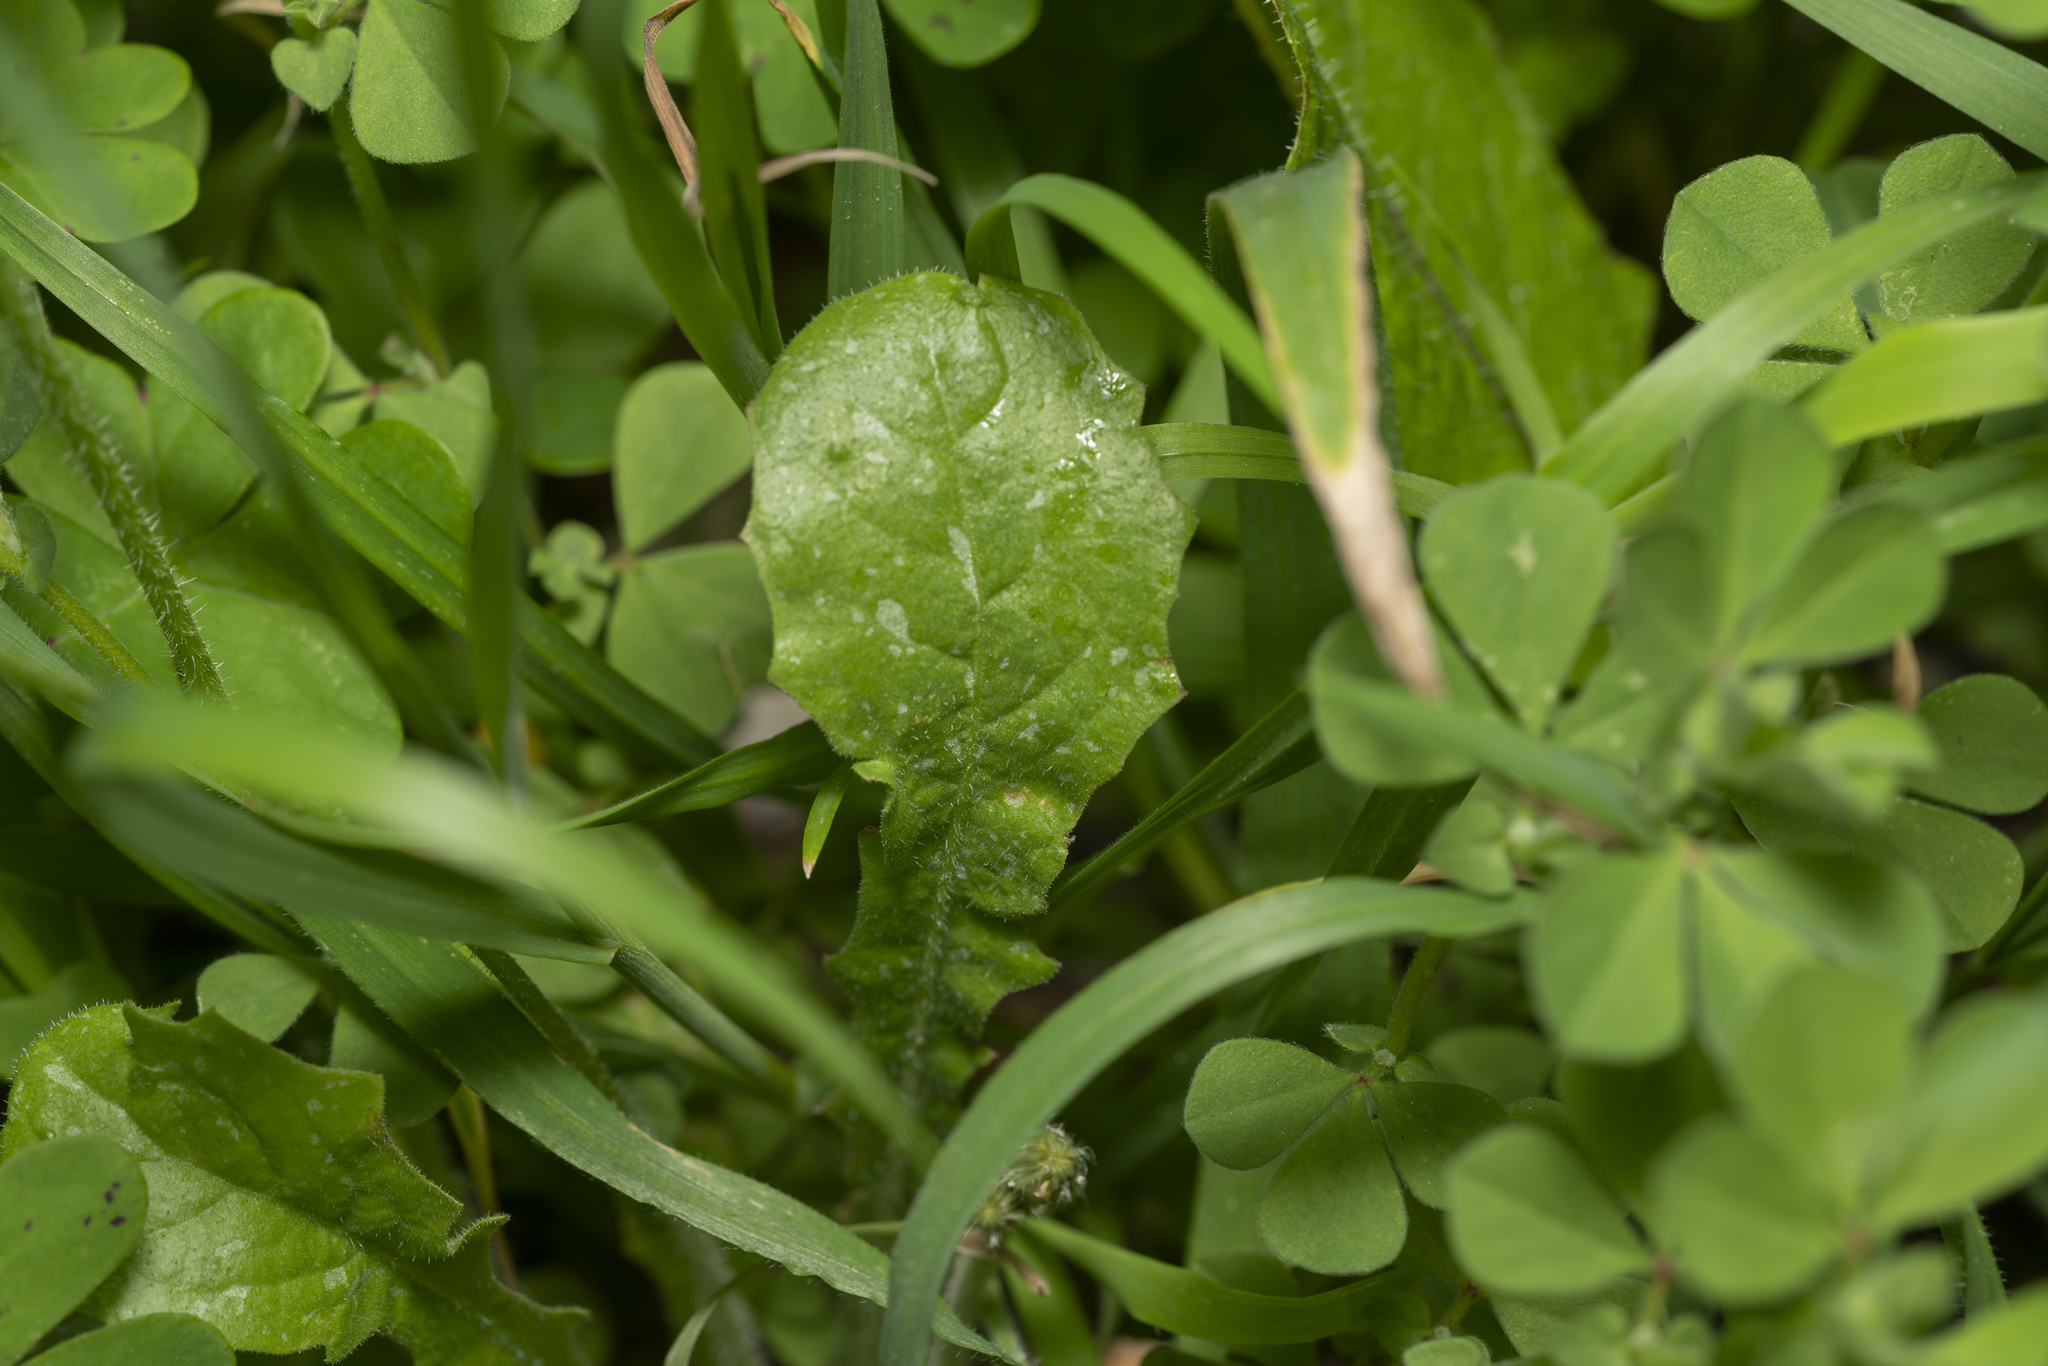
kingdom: Plantae
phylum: Tracheophyta
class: Magnoliopsida
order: Asterales
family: Asteraceae
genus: Crepis
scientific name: Crepis sancta
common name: Hawk's-beard
